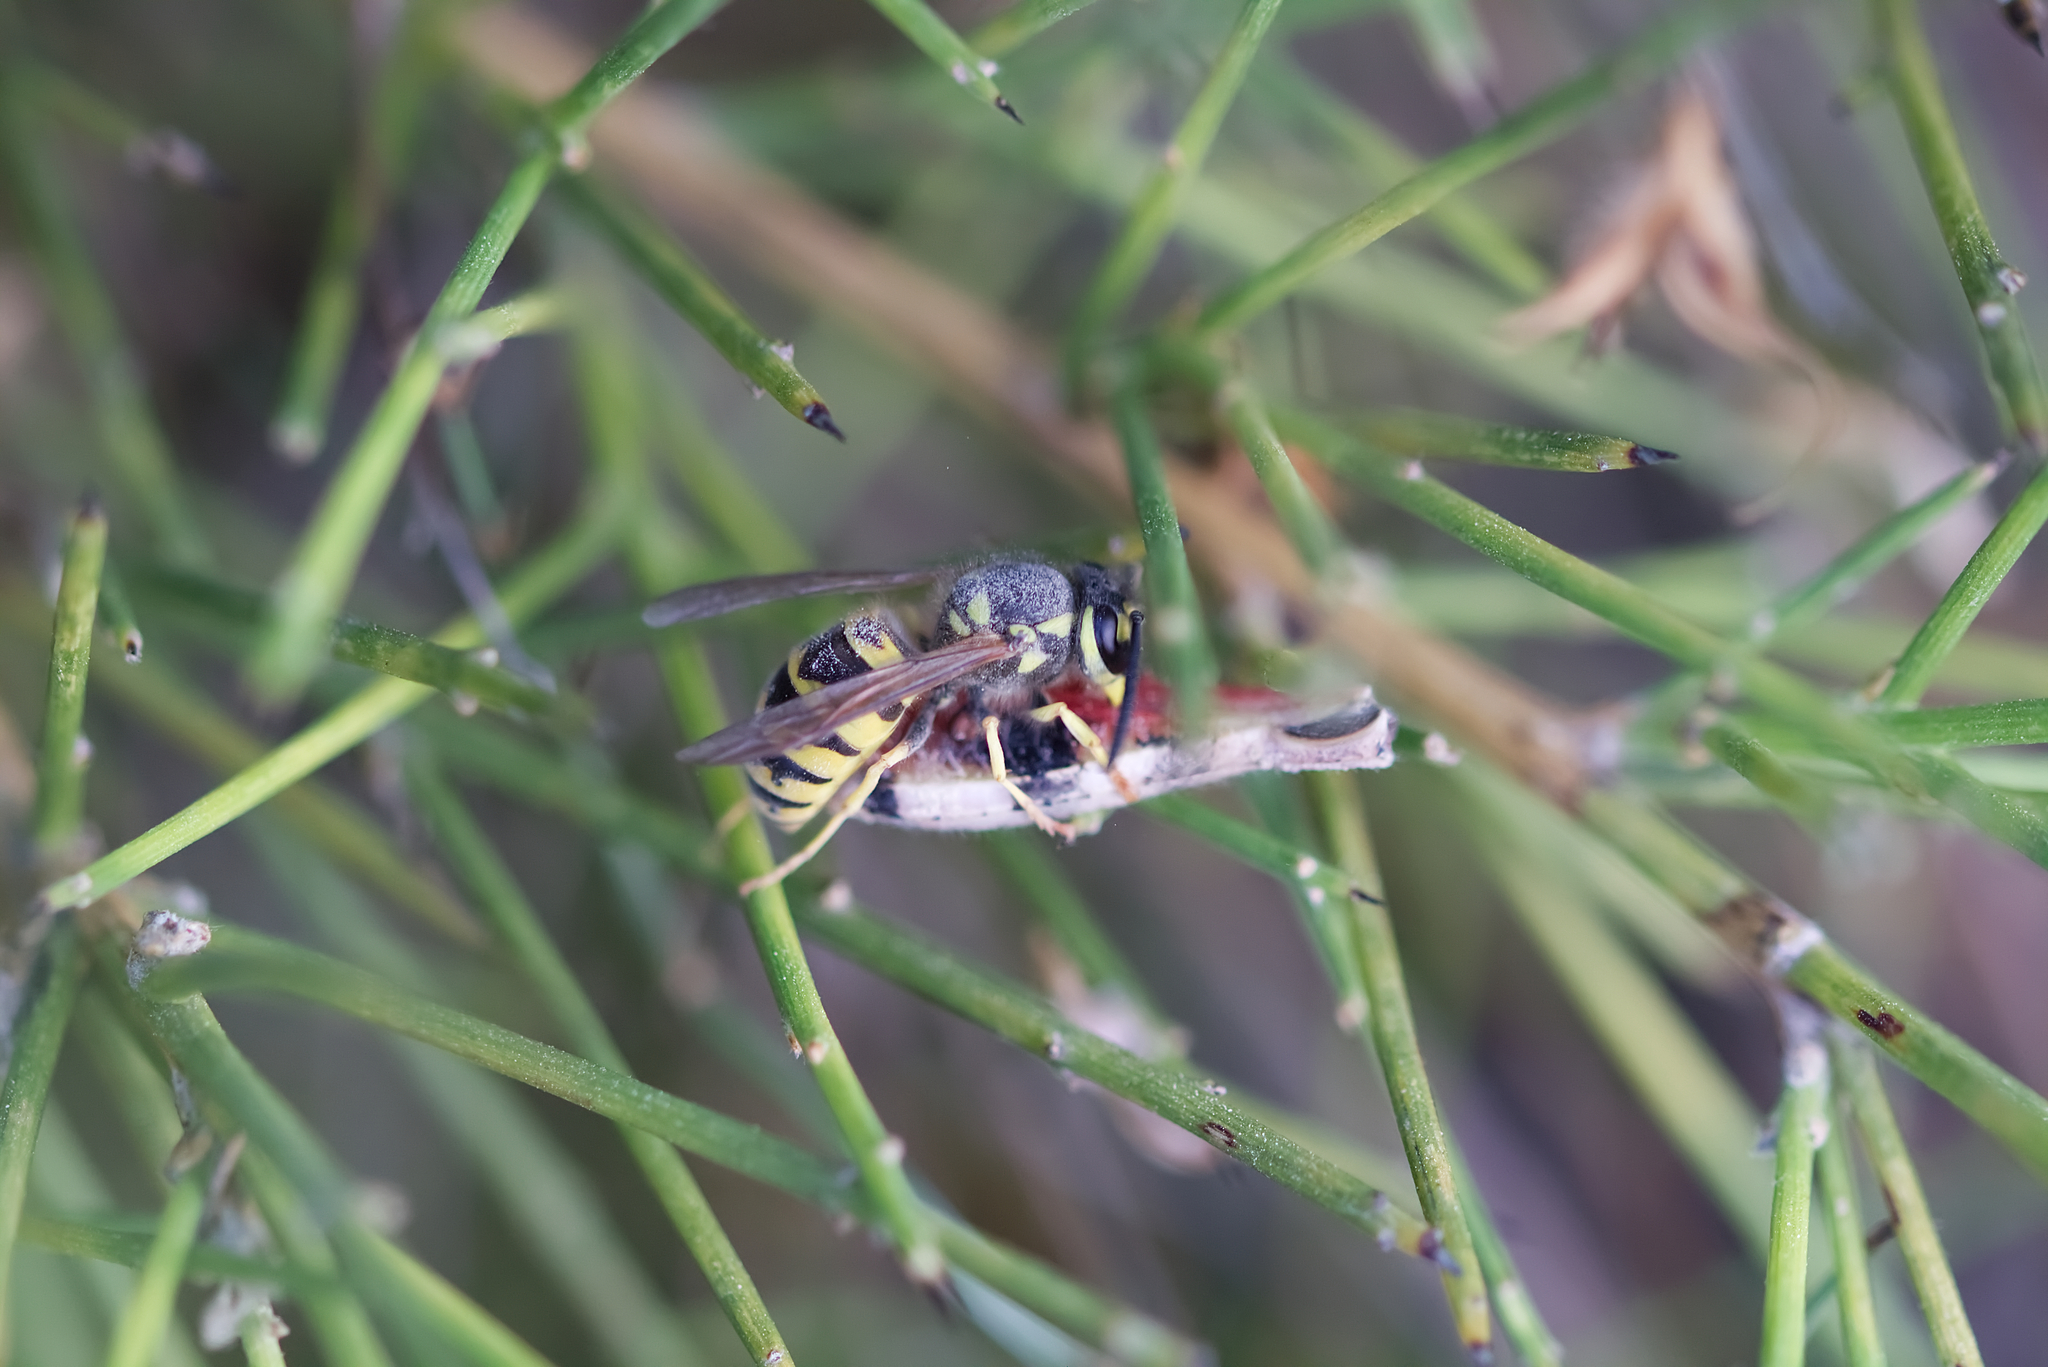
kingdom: Animalia
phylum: Arthropoda
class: Insecta
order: Hymenoptera
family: Vespidae
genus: Vespula
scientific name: Vespula germanica
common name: German wasp
